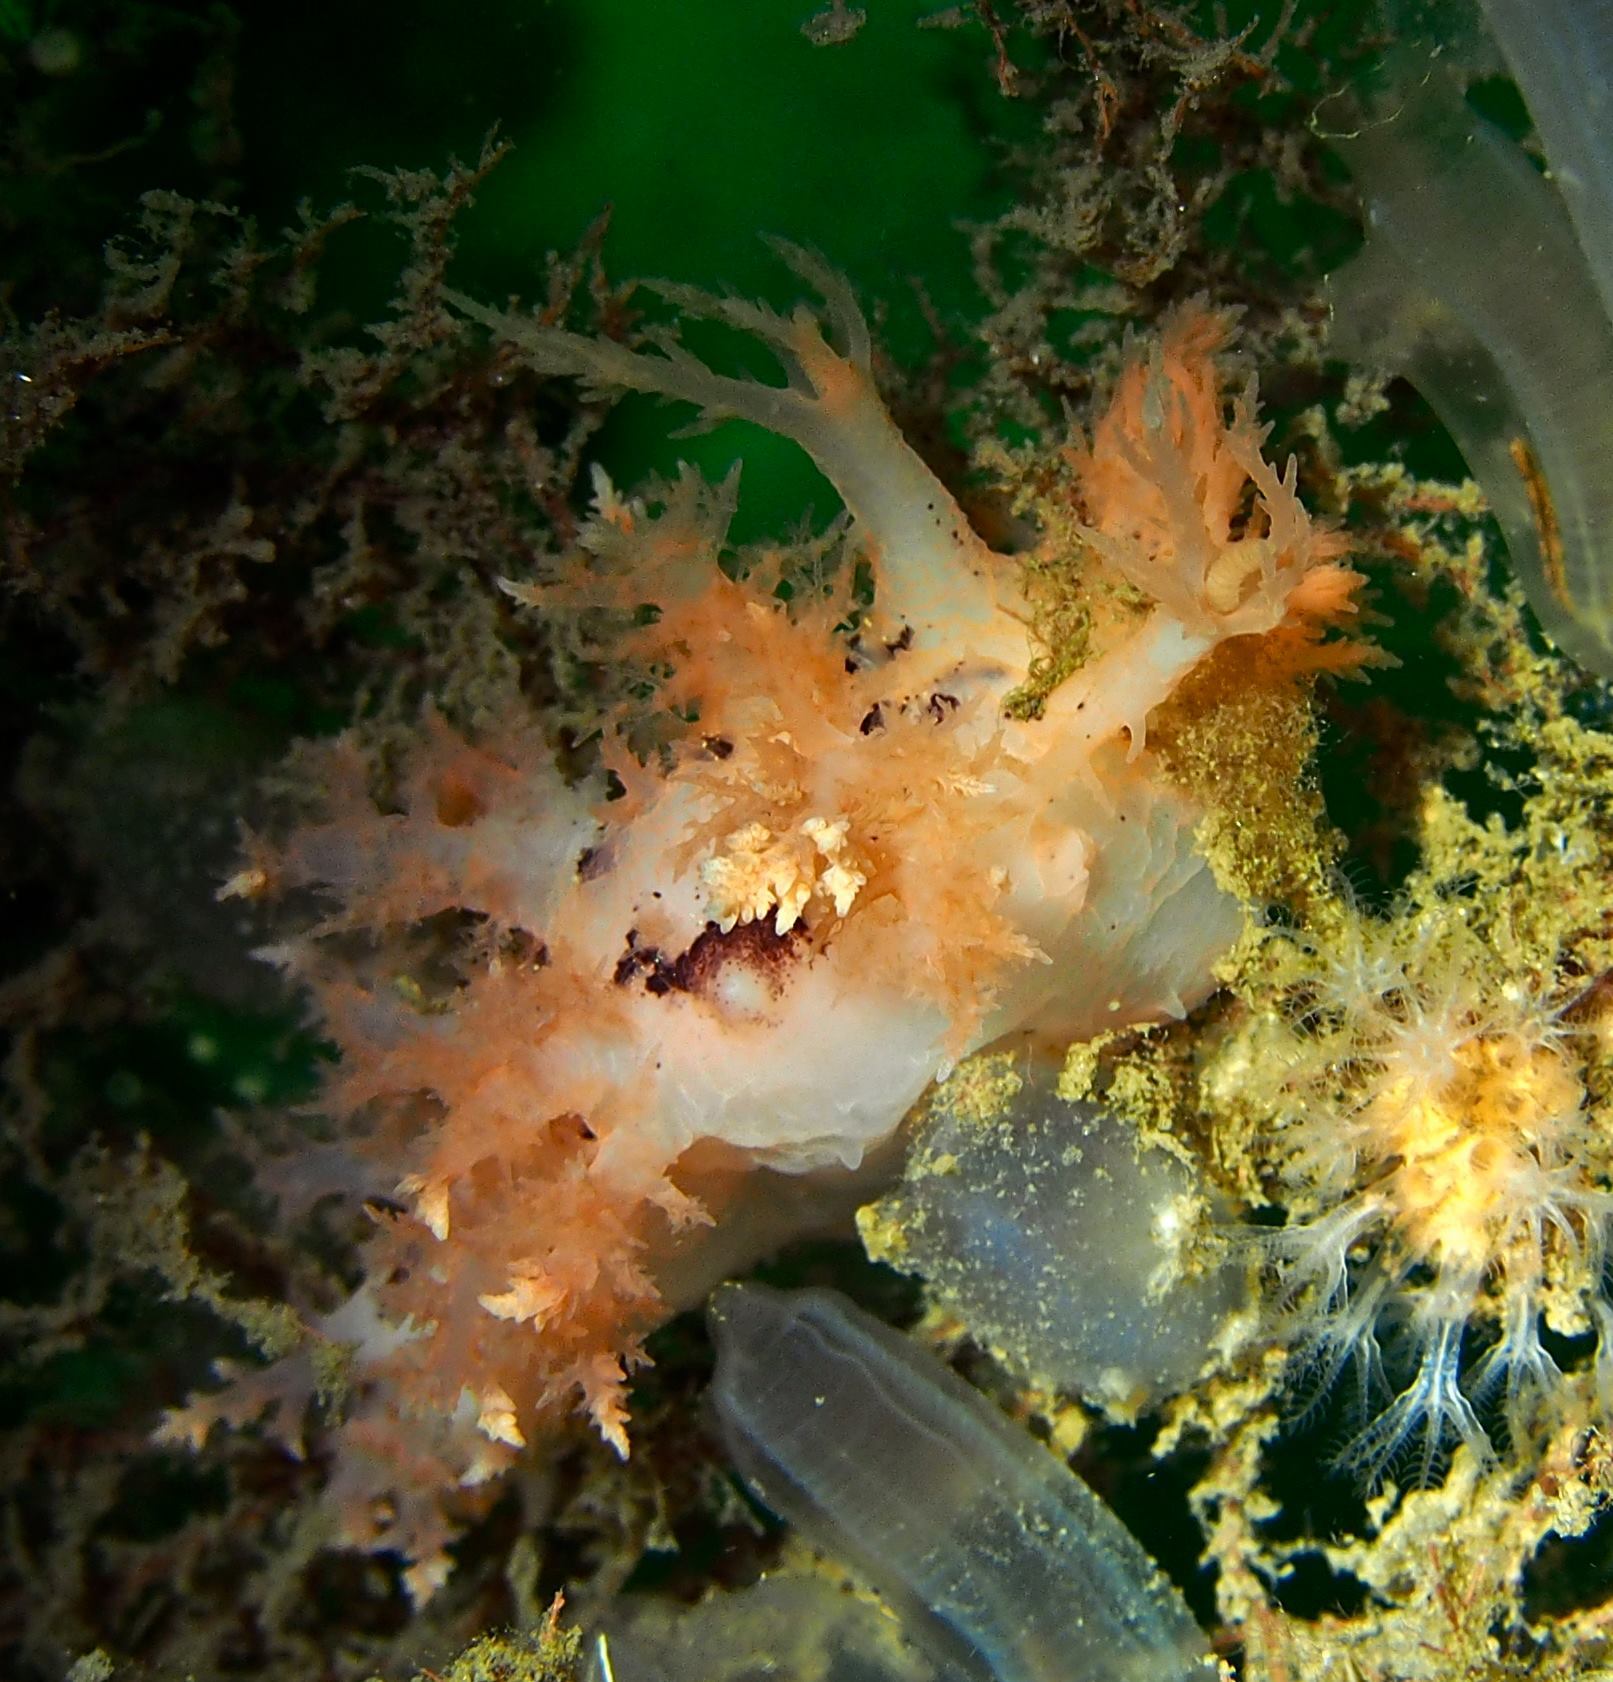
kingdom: Animalia
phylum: Mollusca
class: Gastropoda
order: Nudibranchia
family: Dendronotidae
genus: Dendronotus
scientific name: Dendronotus frondosus
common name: Bushy-backed nudibranch
